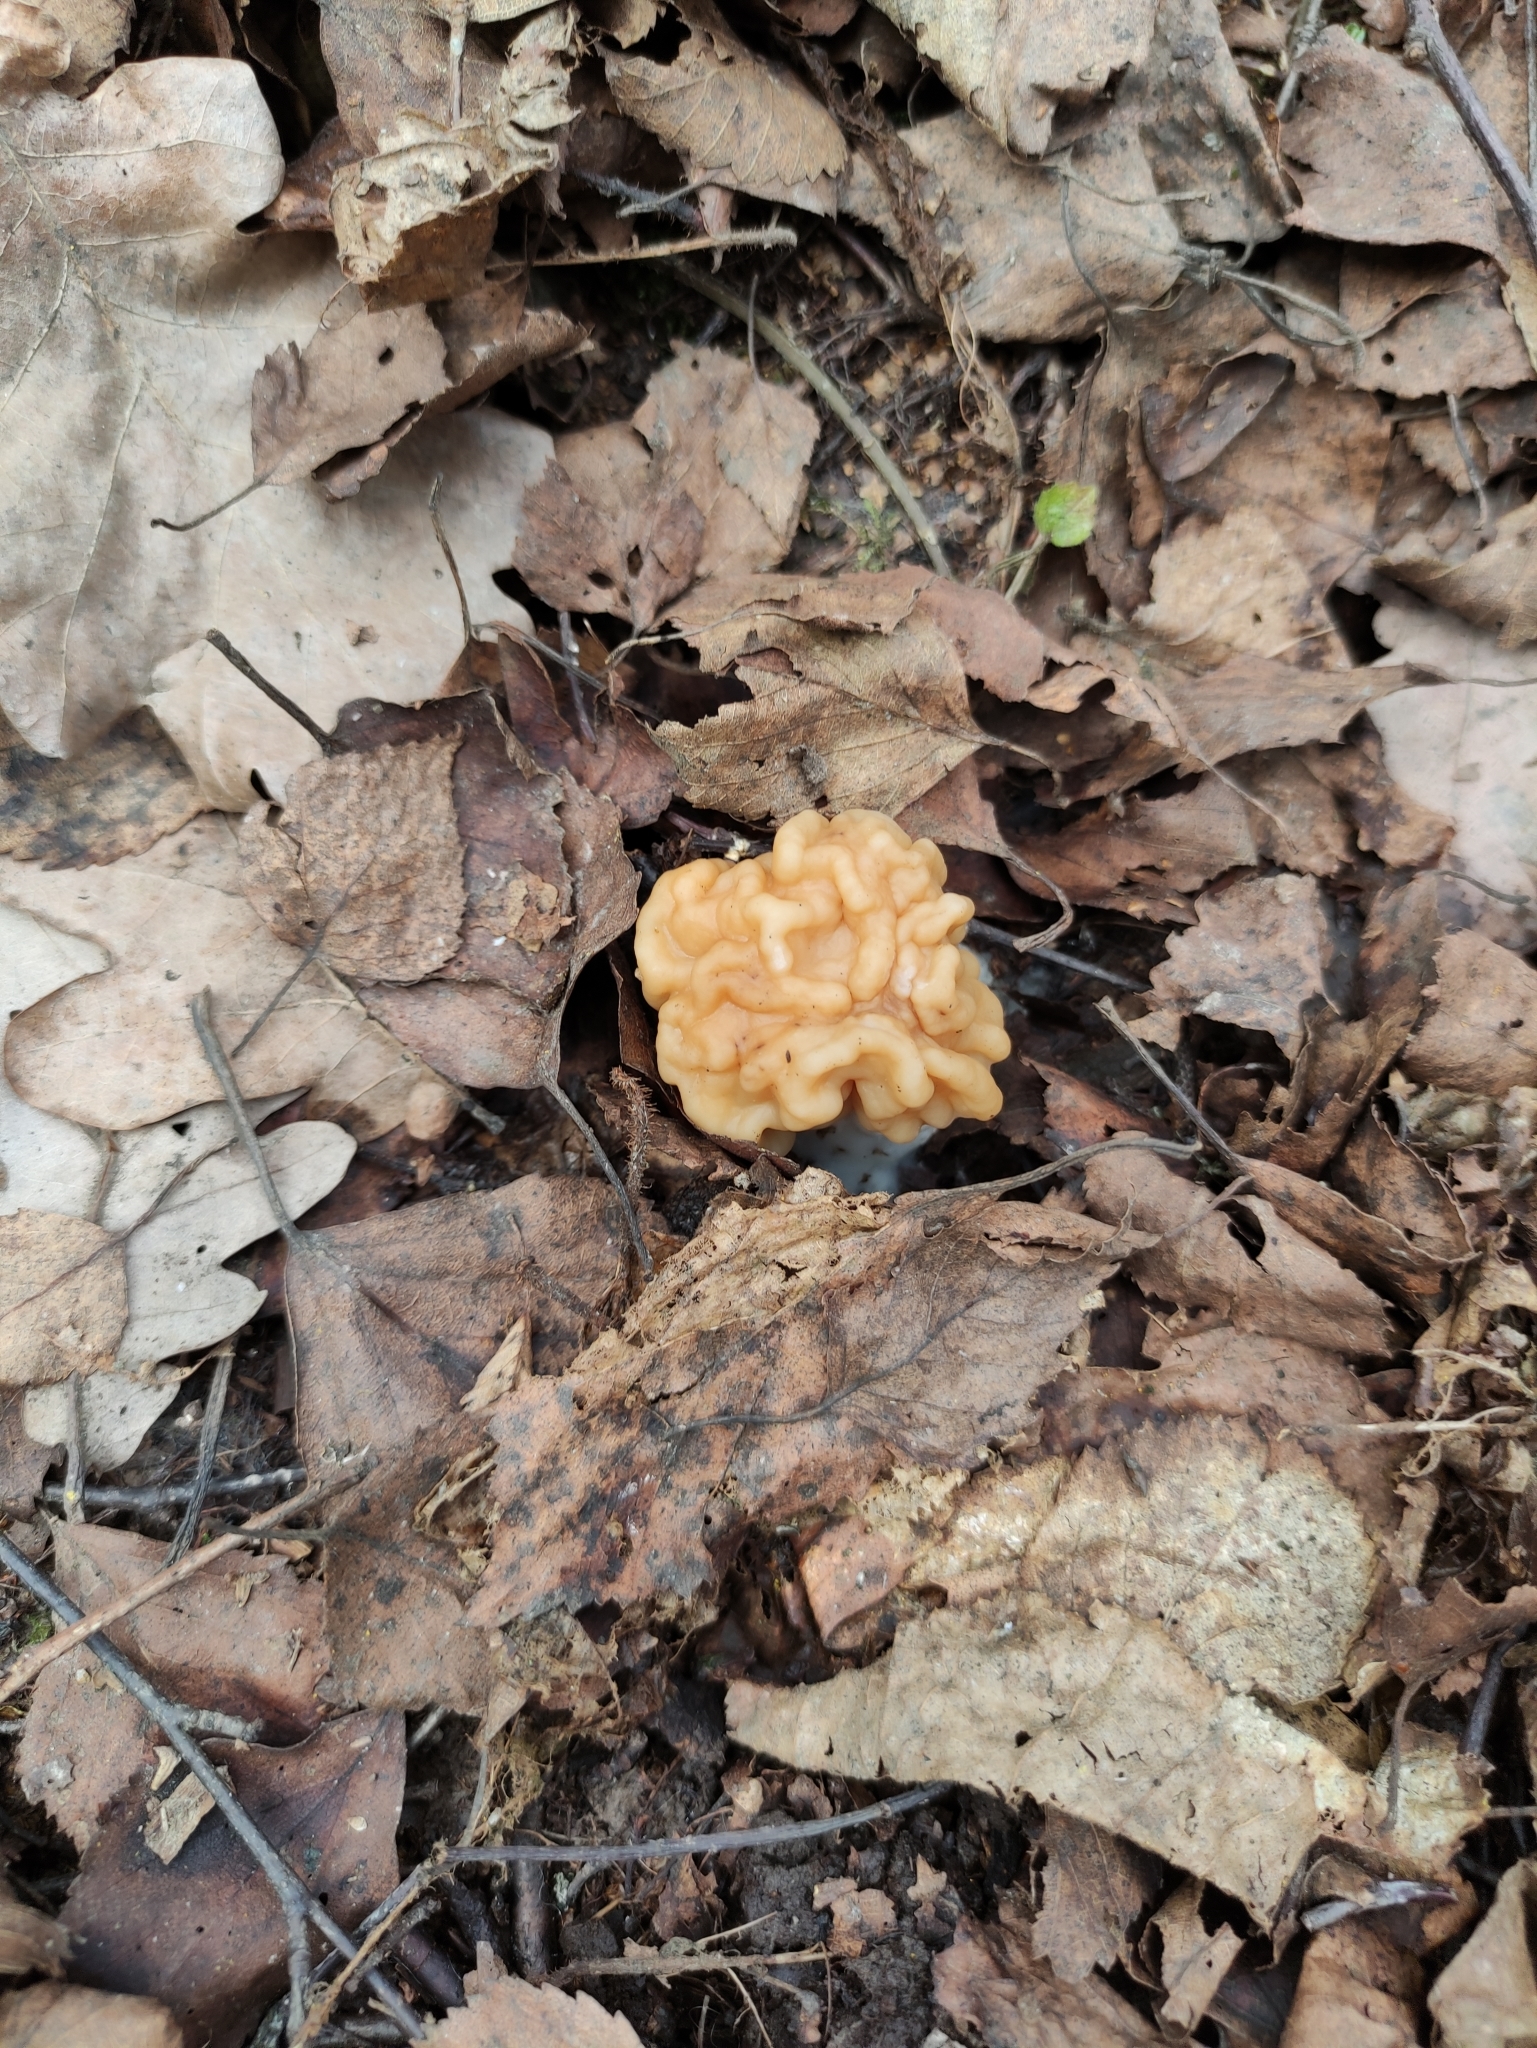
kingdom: Fungi
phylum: Ascomycota
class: Pezizomycetes
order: Pezizales
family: Discinaceae
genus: Gyromitra
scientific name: Gyromitra gigas
